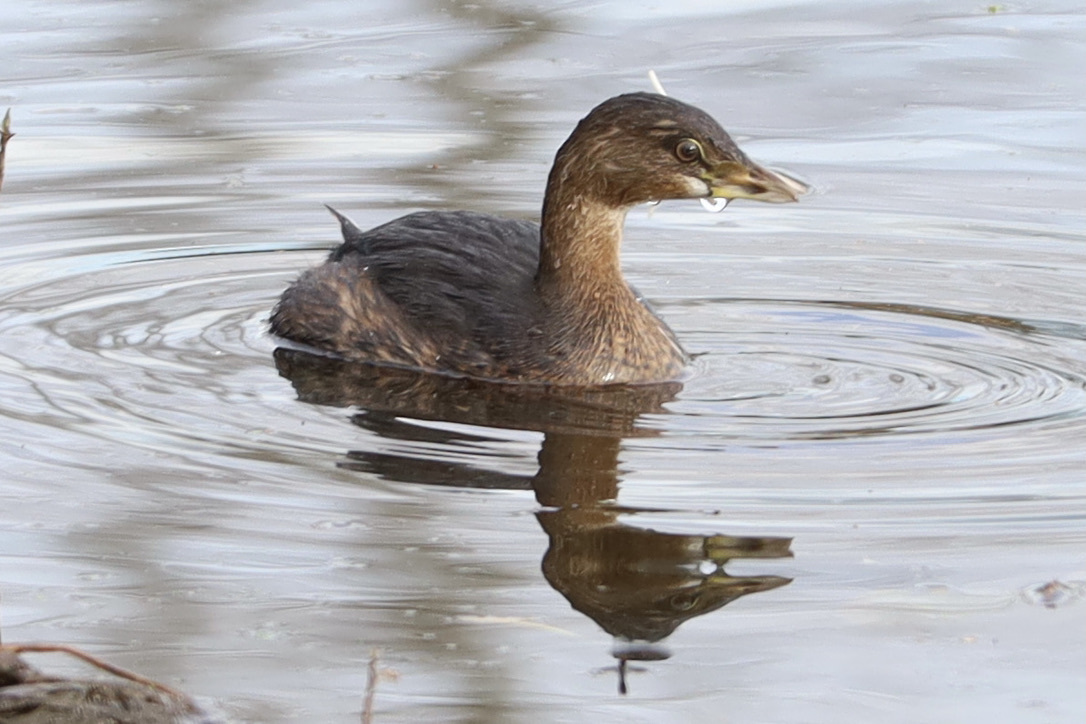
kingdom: Animalia
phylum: Chordata
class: Aves
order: Podicipediformes
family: Podicipedidae
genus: Podilymbus
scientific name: Podilymbus podiceps
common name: Pied-billed grebe
